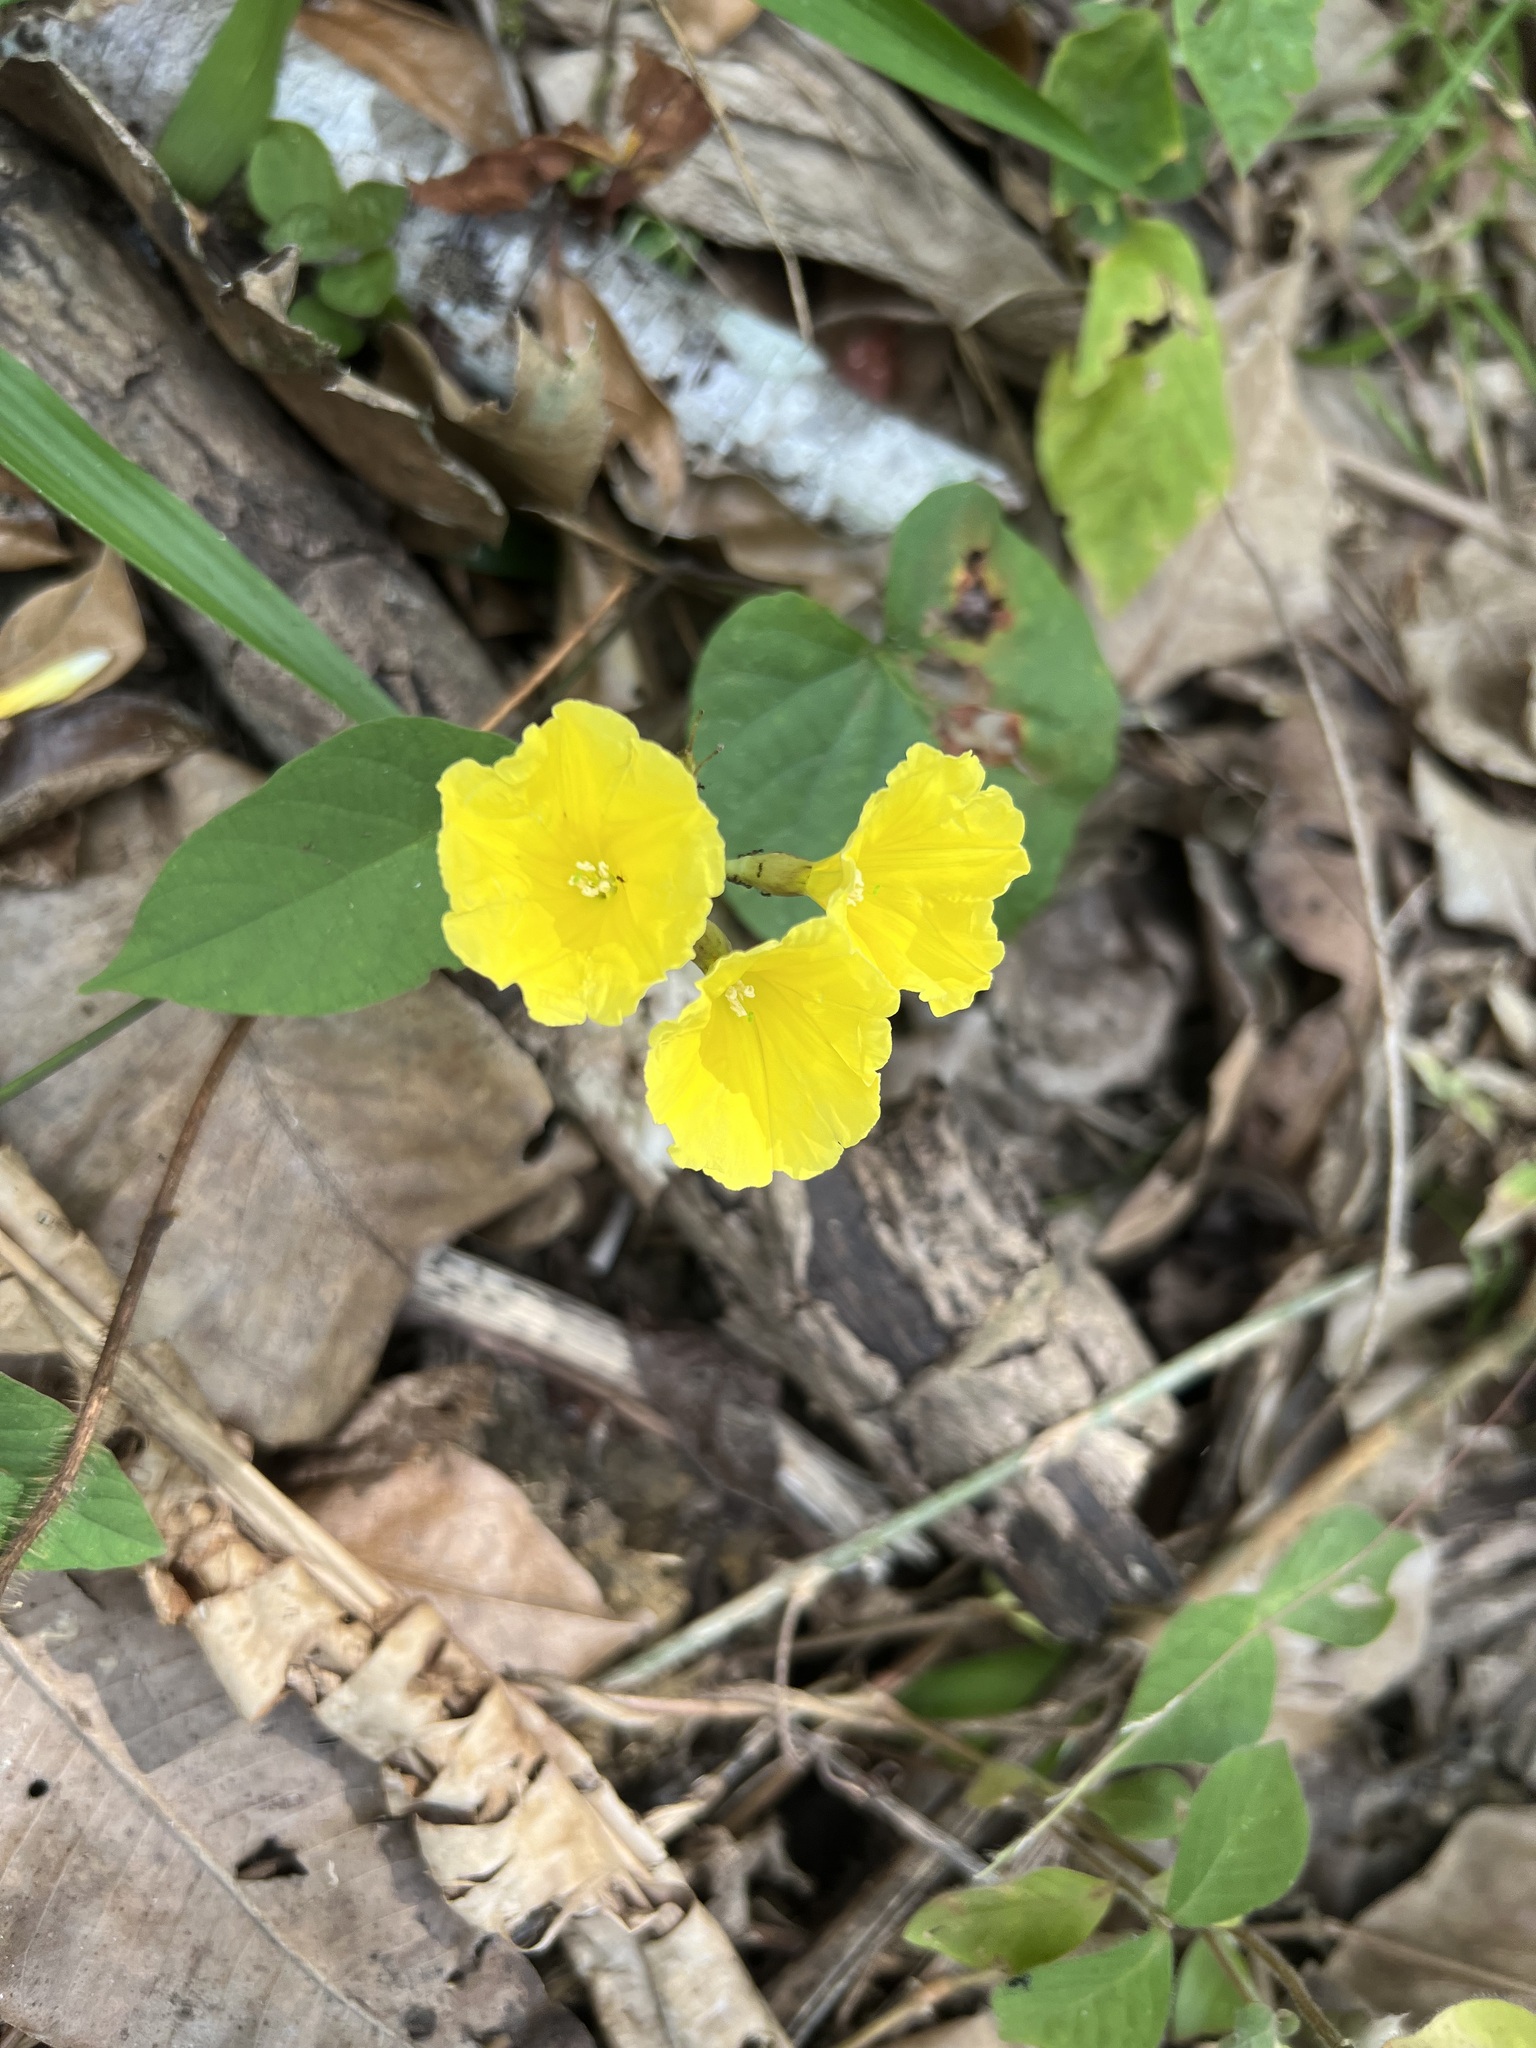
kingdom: Plantae
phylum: Tracheophyta
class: Magnoliopsida
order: Solanales
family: Convolvulaceae
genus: Camonea
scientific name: Camonea umbellata
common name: Hogvine
